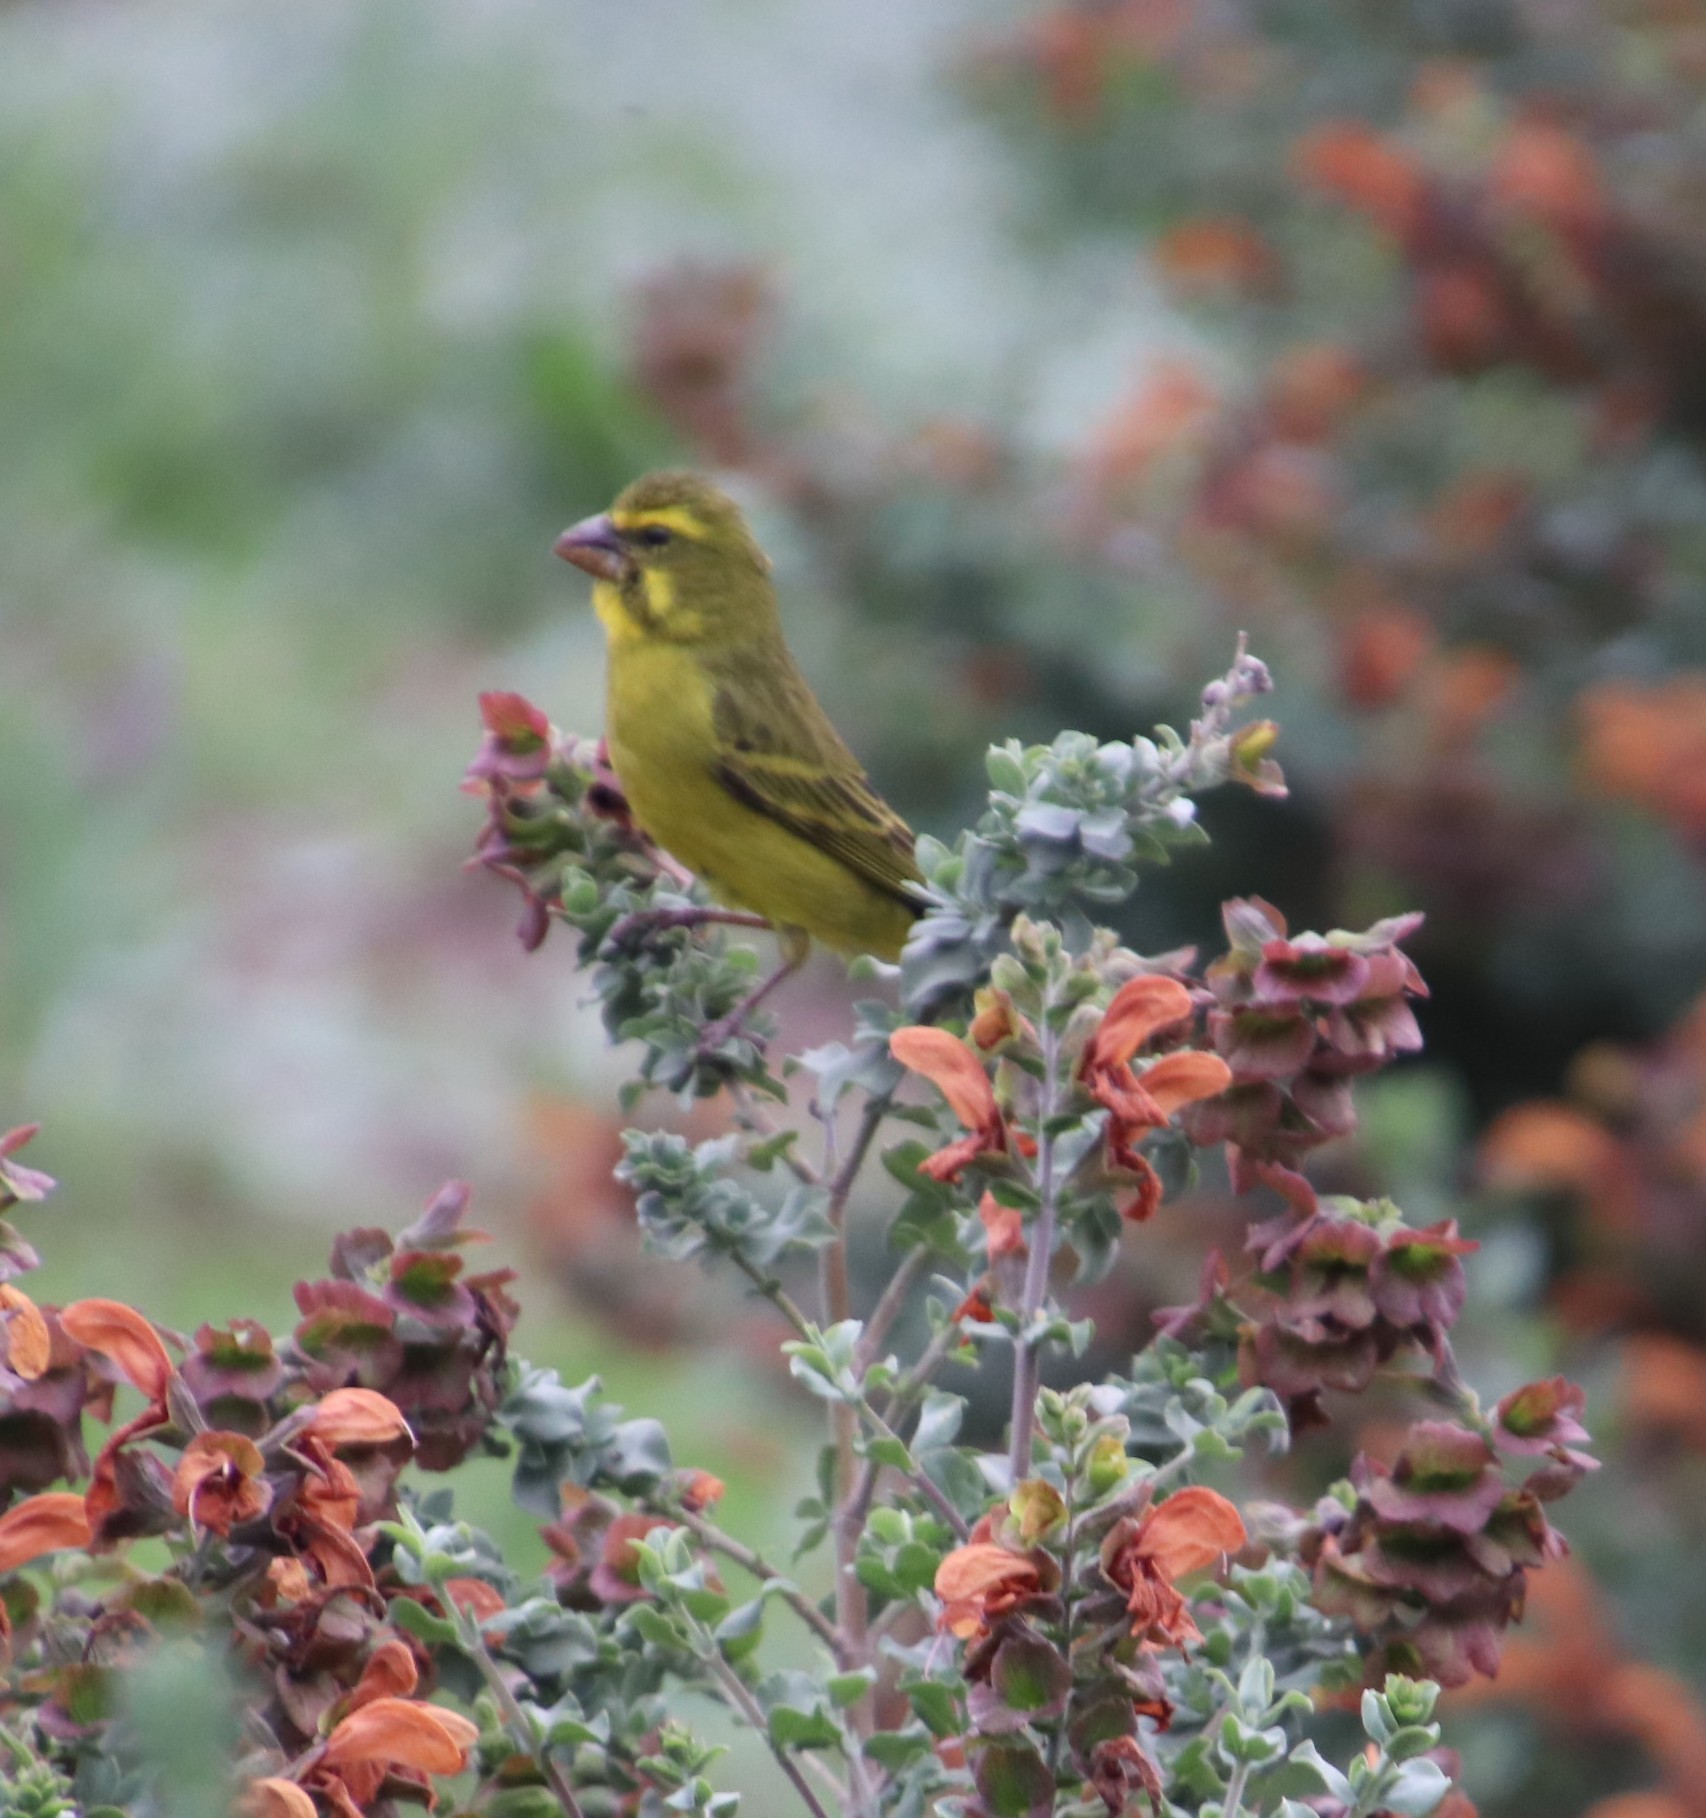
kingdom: Animalia
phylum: Chordata
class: Aves
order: Passeriformes
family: Fringillidae
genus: Crithagra
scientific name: Crithagra sulphurata
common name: Brimstone canary
